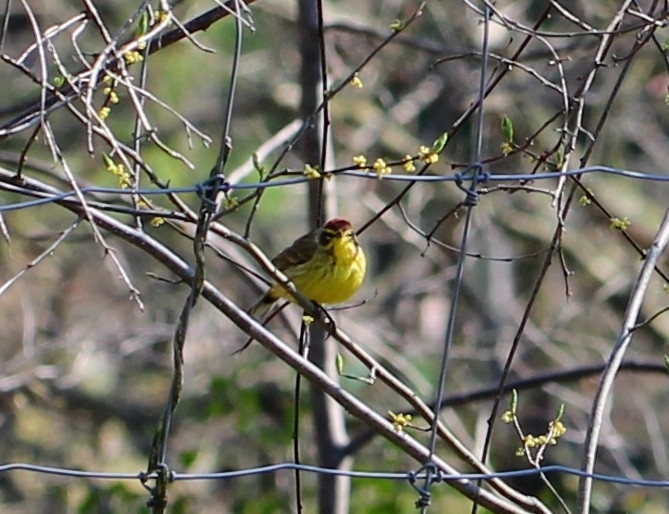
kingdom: Animalia
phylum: Chordata
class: Aves
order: Passeriformes
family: Parulidae
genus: Setophaga
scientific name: Setophaga palmarum
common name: Palm warbler
